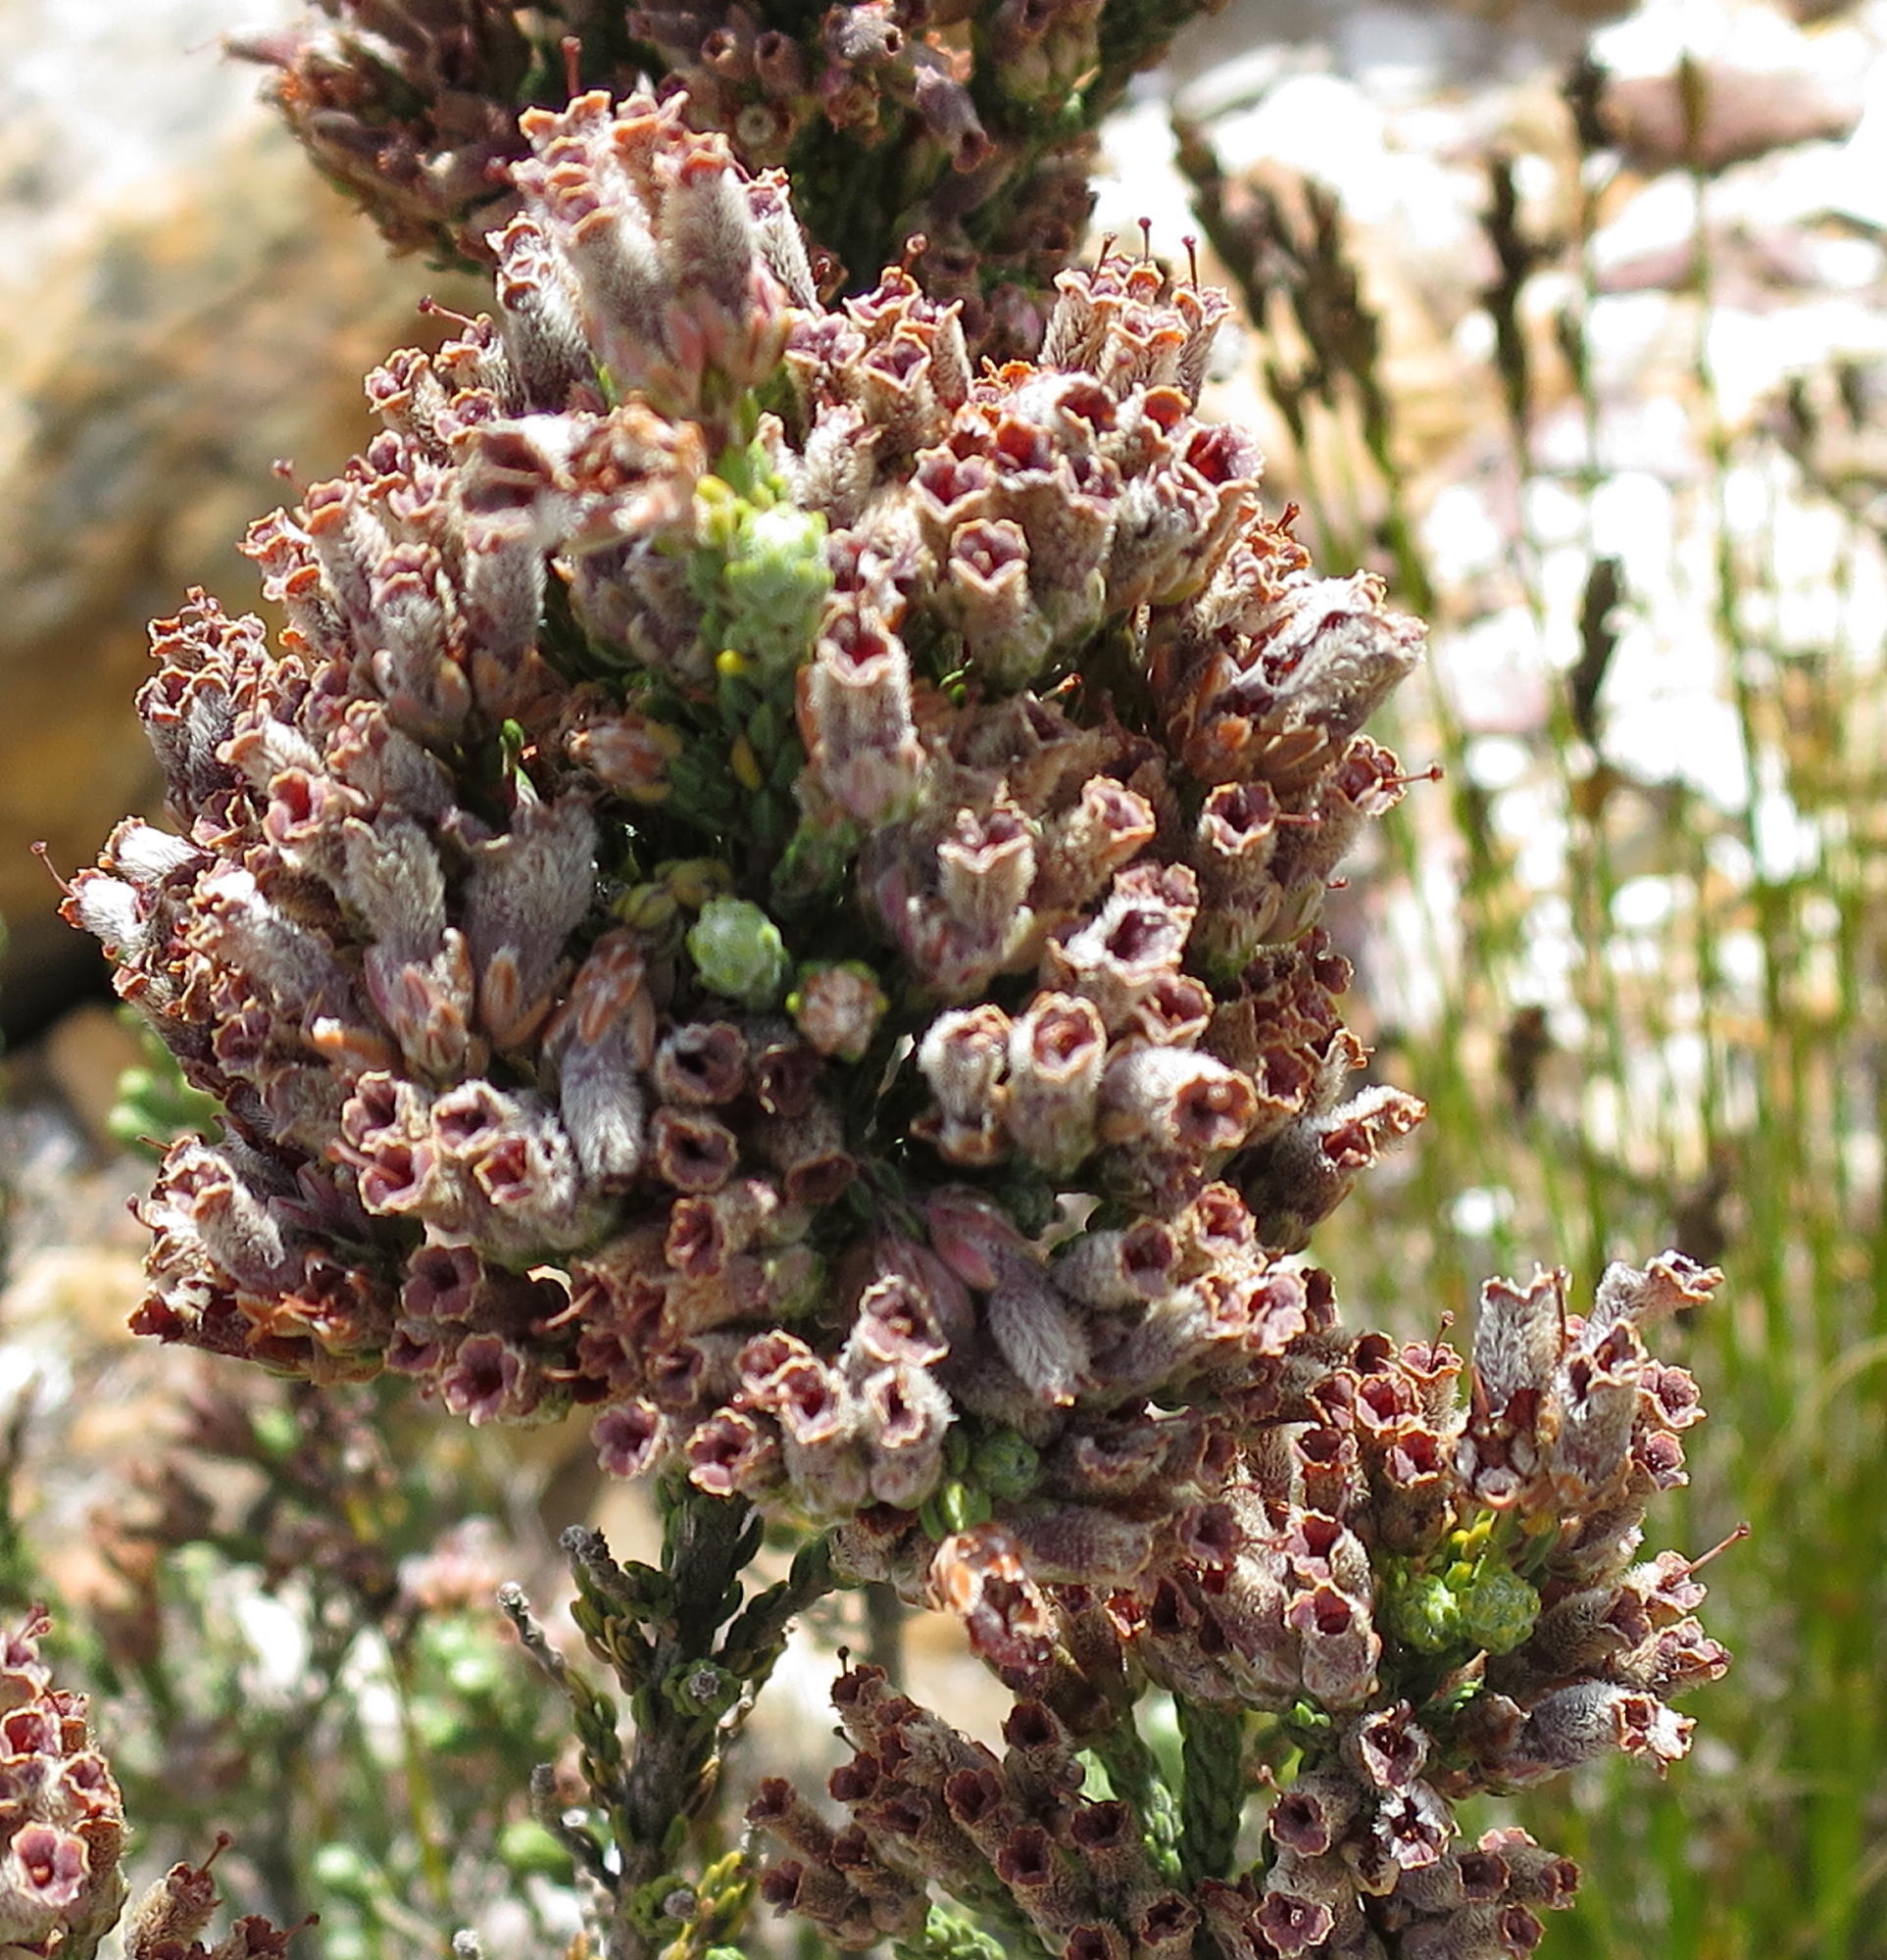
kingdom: Plantae
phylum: Tracheophyta
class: Magnoliopsida
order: Ericales
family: Ericaceae
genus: Erica
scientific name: Erica strigilifolia
